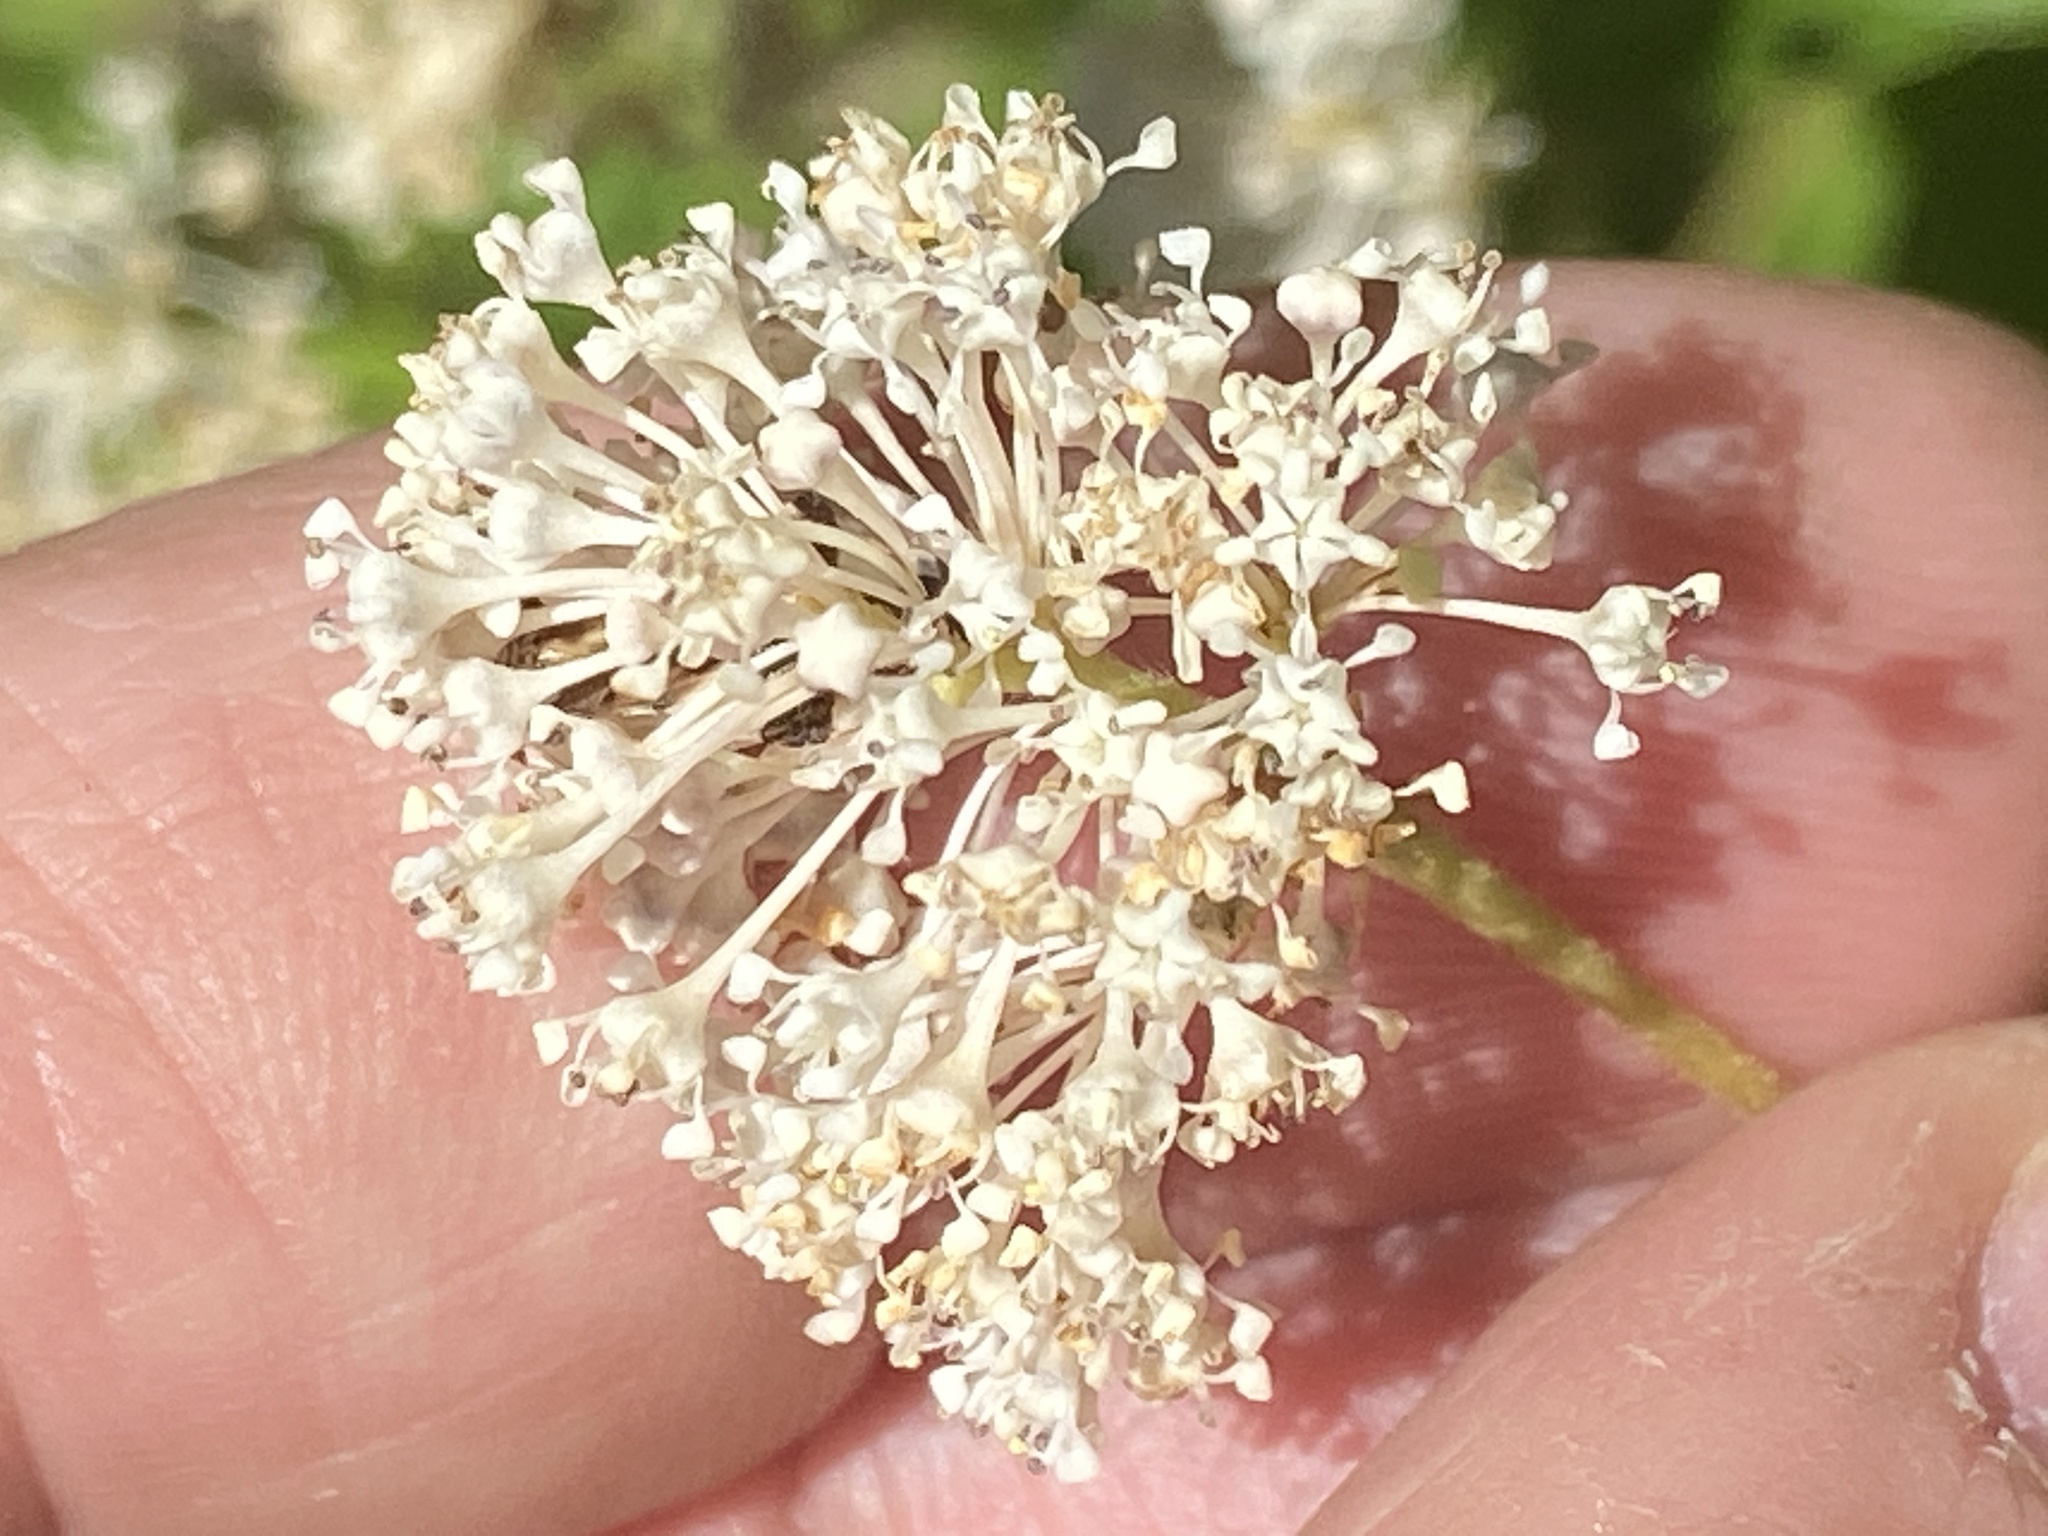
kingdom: Plantae
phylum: Tracheophyta
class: Magnoliopsida
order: Rosales
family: Rhamnaceae
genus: Ceanothus
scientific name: Ceanothus americanus
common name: Redroot
